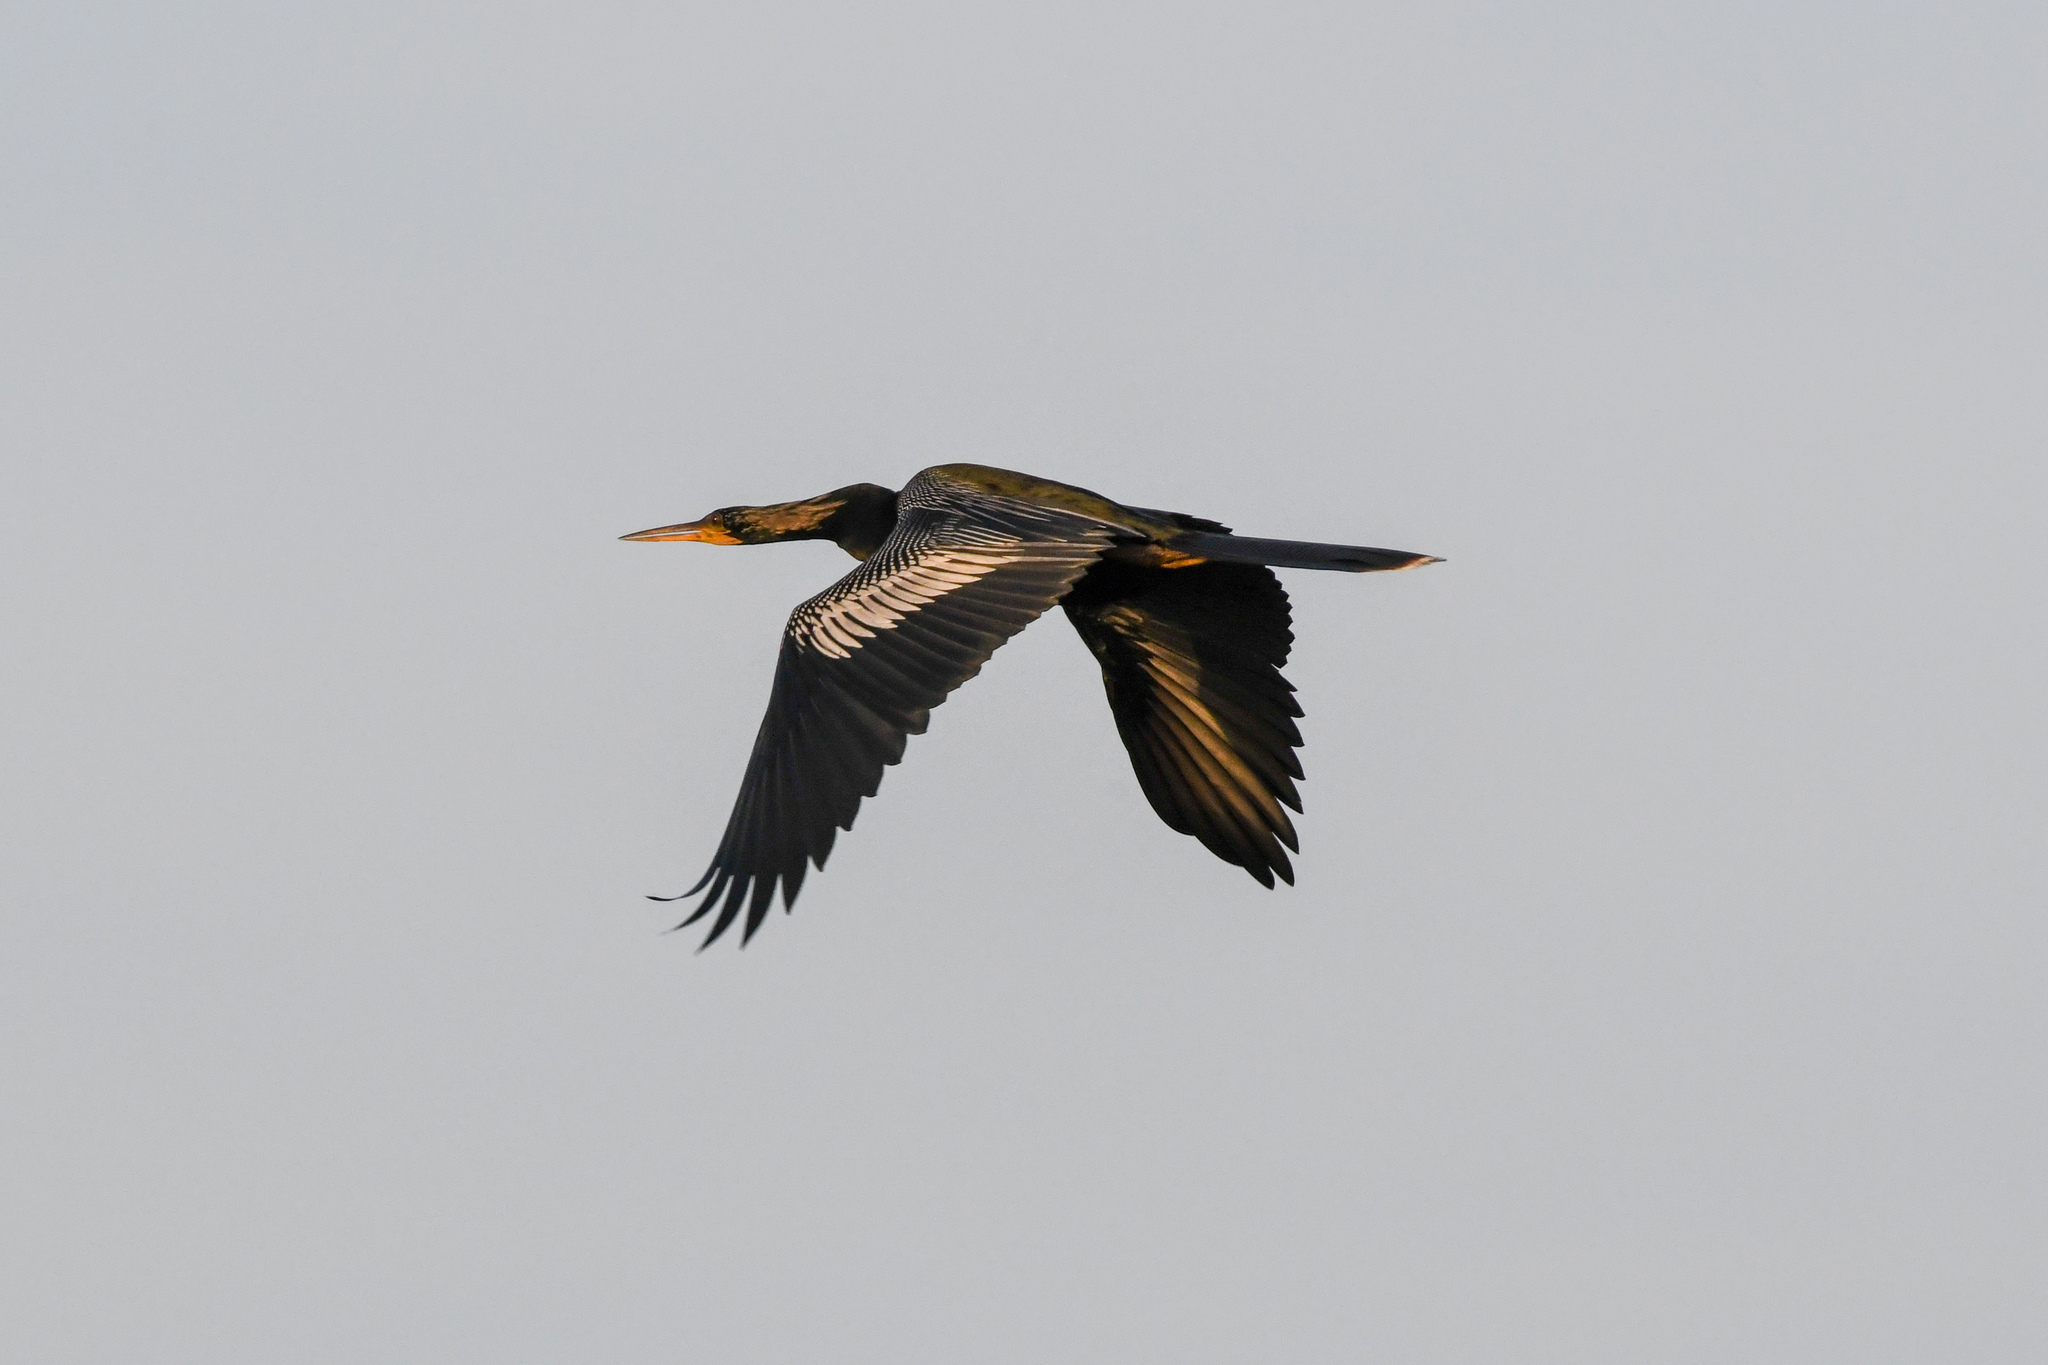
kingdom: Animalia
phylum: Chordata
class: Aves
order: Suliformes
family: Anhingidae
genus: Anhinga
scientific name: Anhinga anhinga
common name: Anhinga
